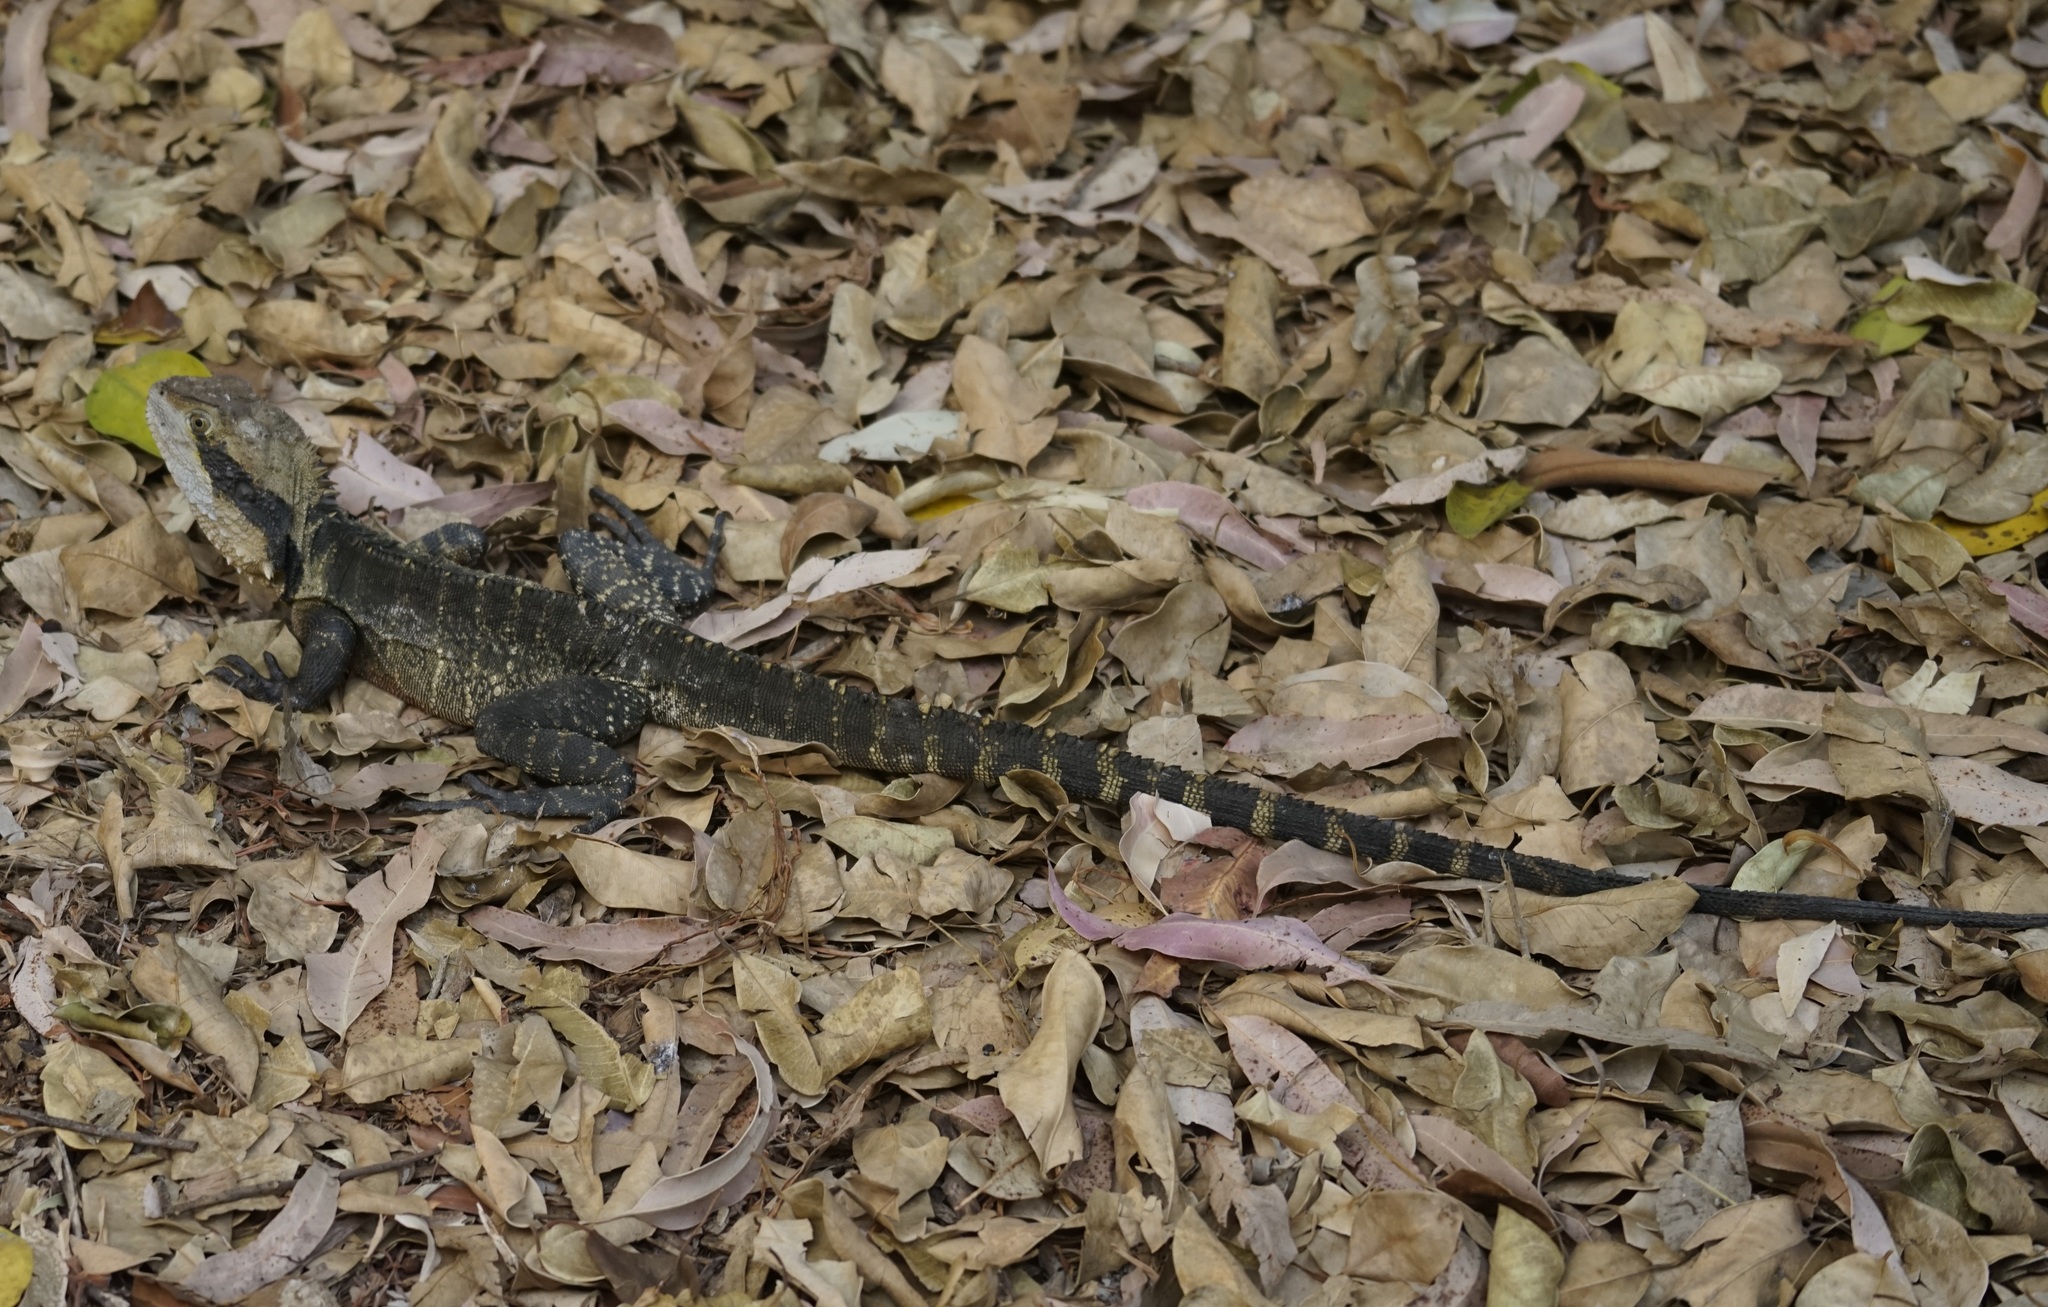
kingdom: Animalia
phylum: Chordata
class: Squamata
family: Agamidae
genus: Intellagama
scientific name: Intellagama lesueurii
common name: Eastern water dragon
